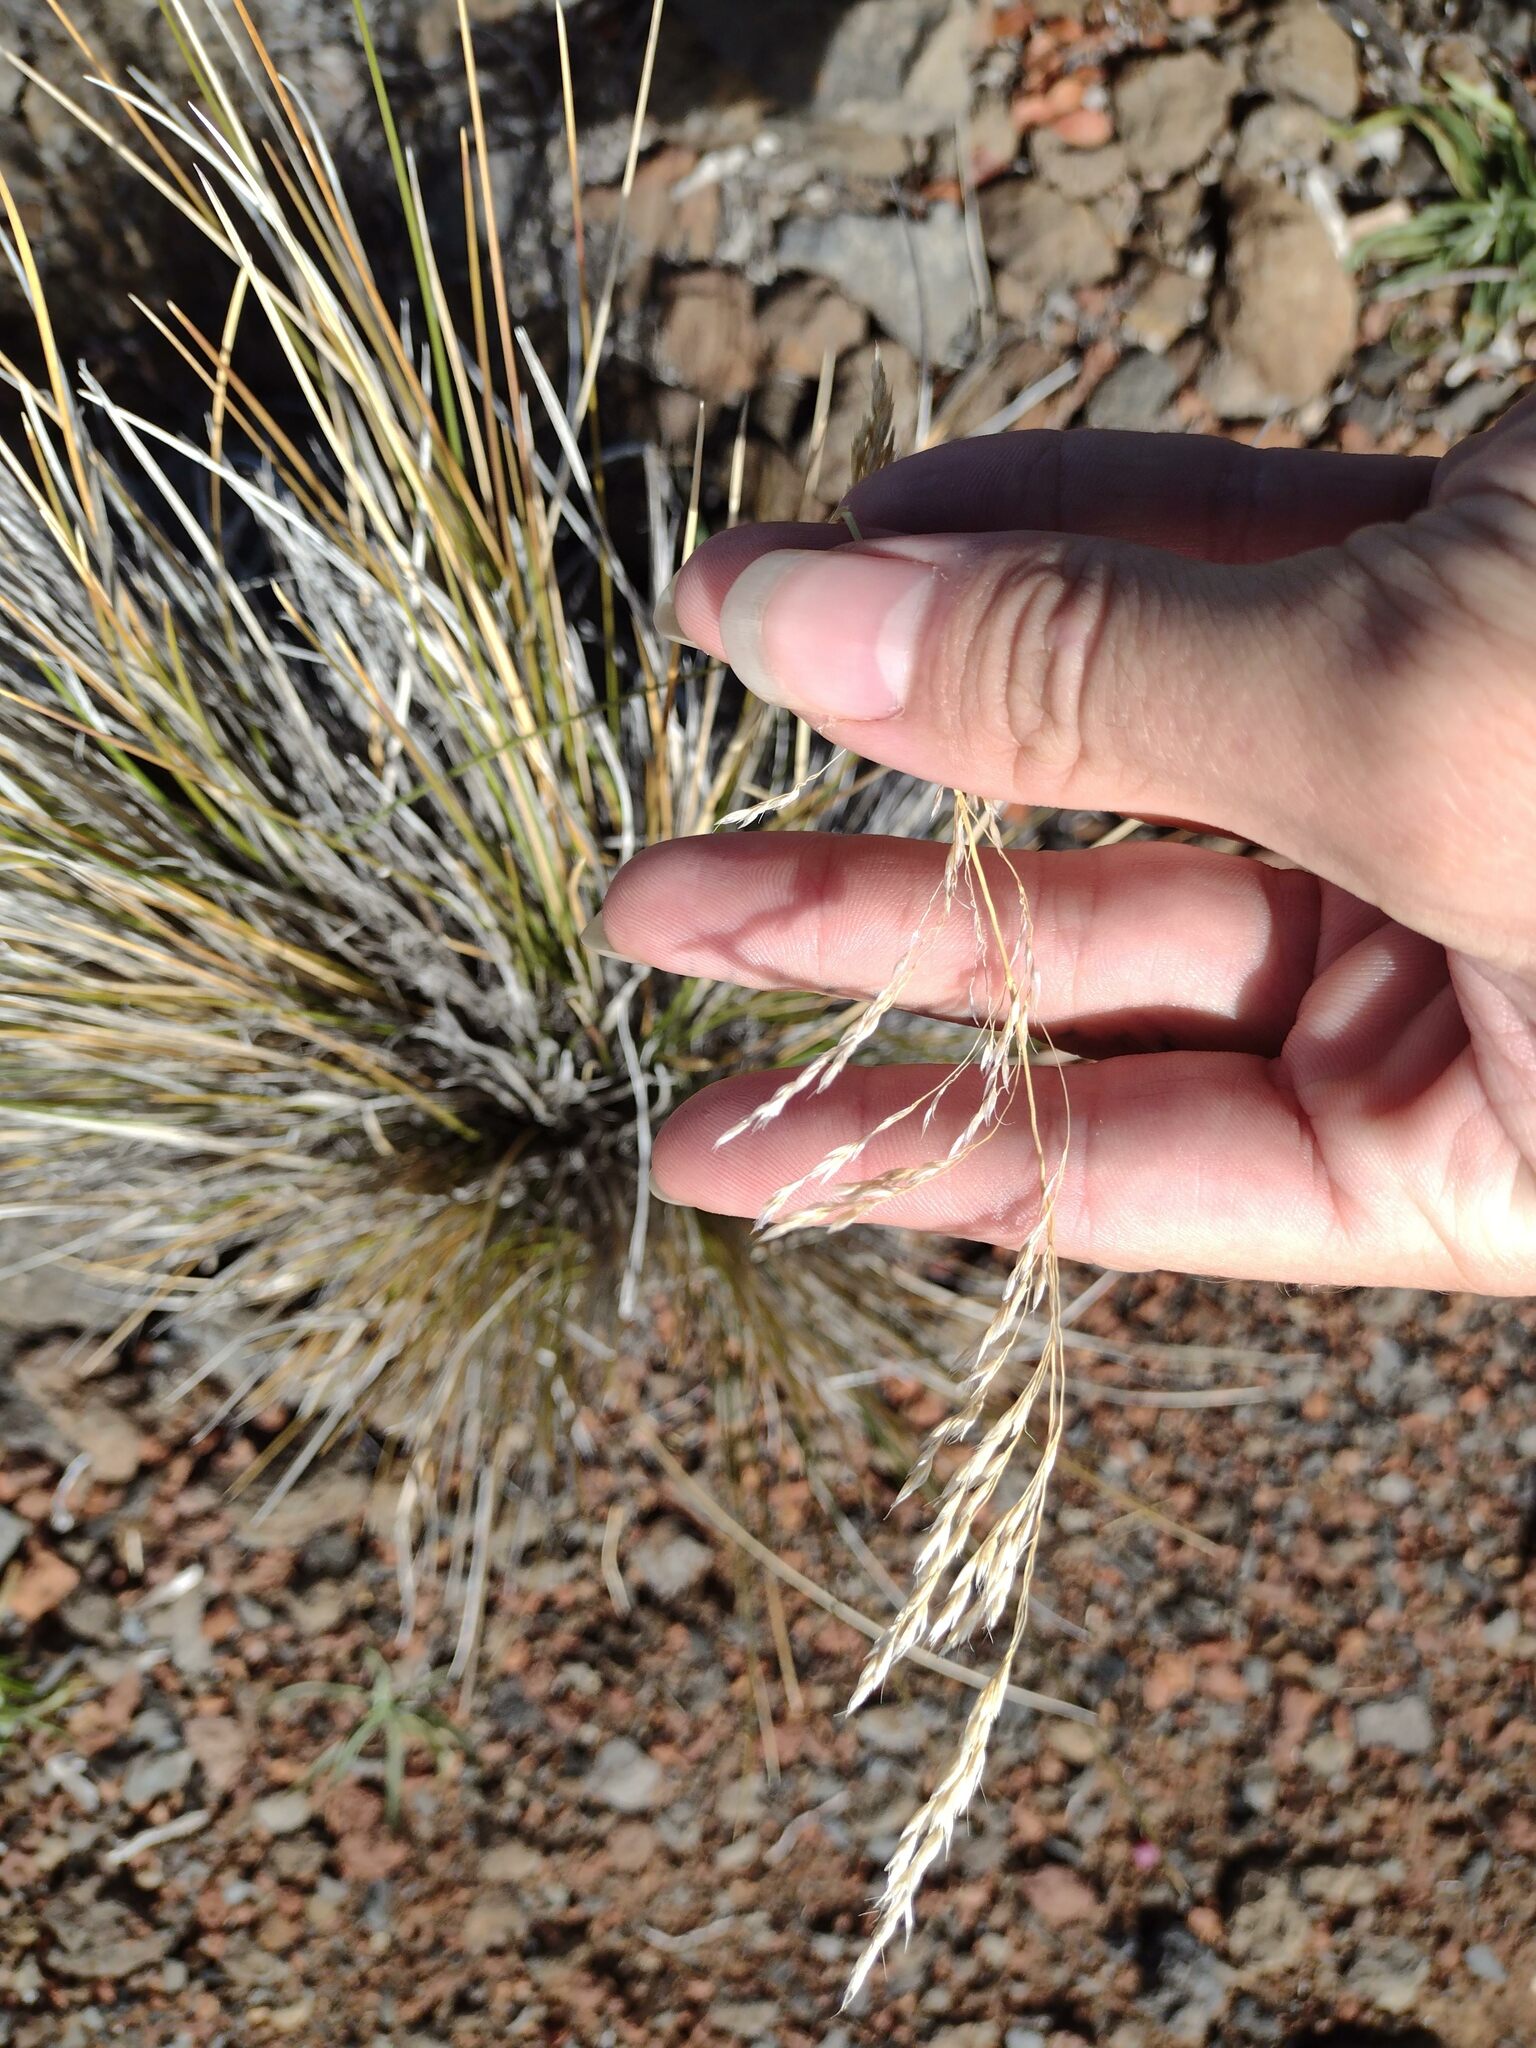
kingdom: Plantae
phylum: Tracheophyta
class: Liliopsida
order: Poales
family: Poaceae
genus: Deschampsia
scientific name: Deschampsia nubigena
